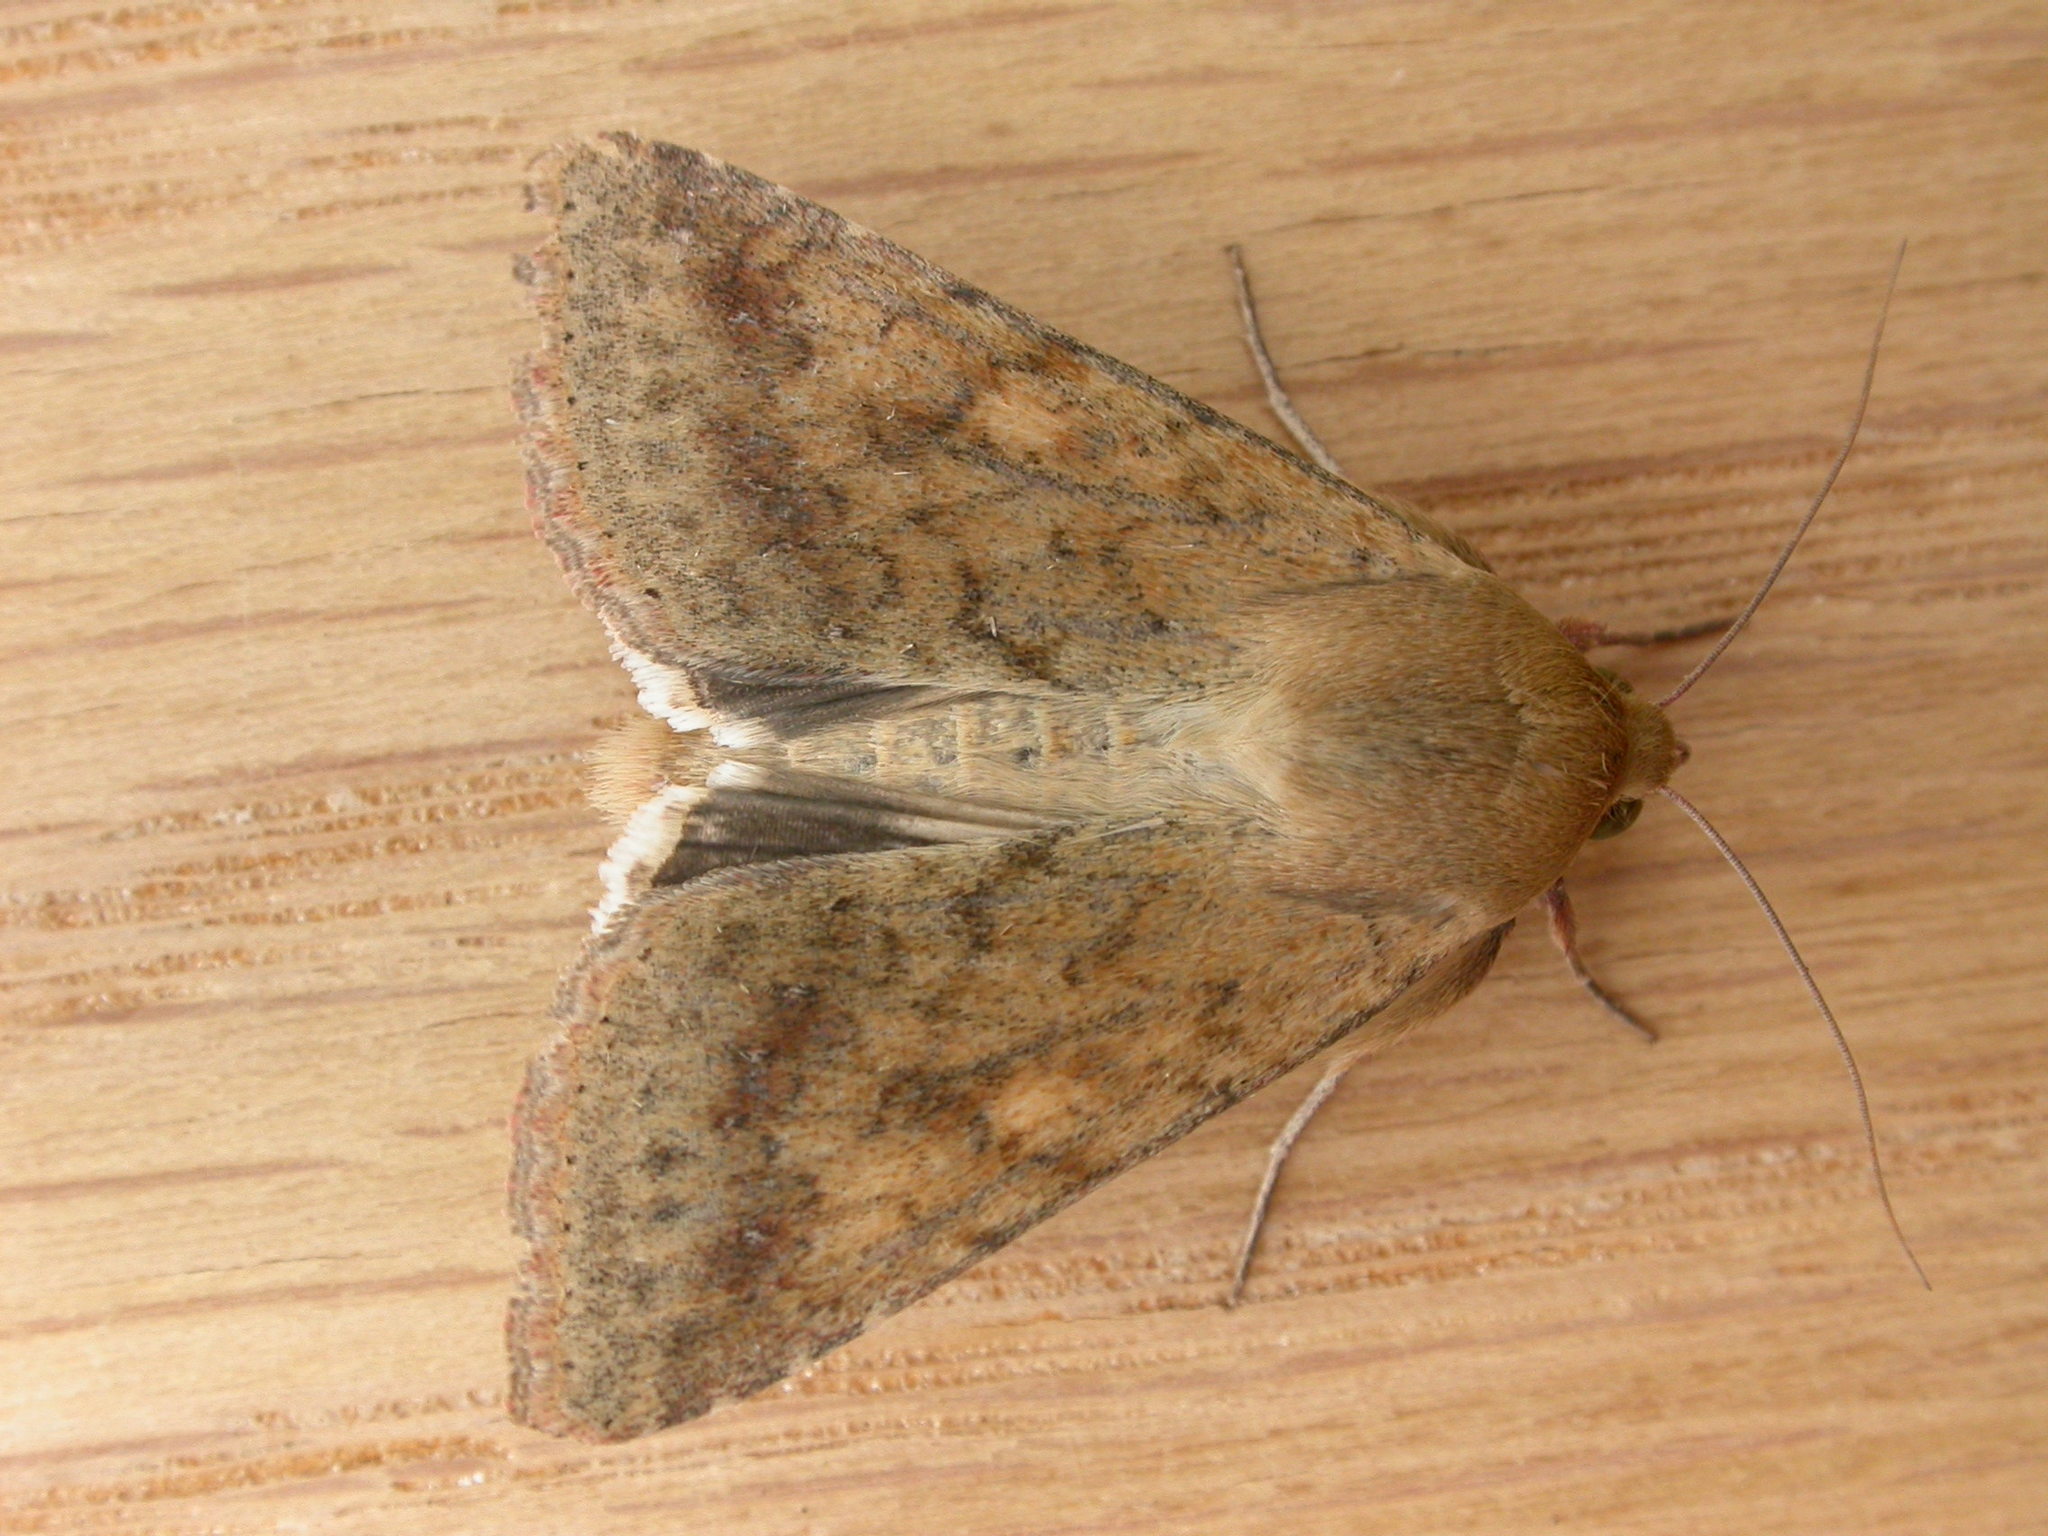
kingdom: Animalia
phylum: Arthropoda
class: Insecta
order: Lepidoptera
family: Noctuidae
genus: Helicoverpa
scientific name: Helicoverpa armigera
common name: Cotton bollworm
